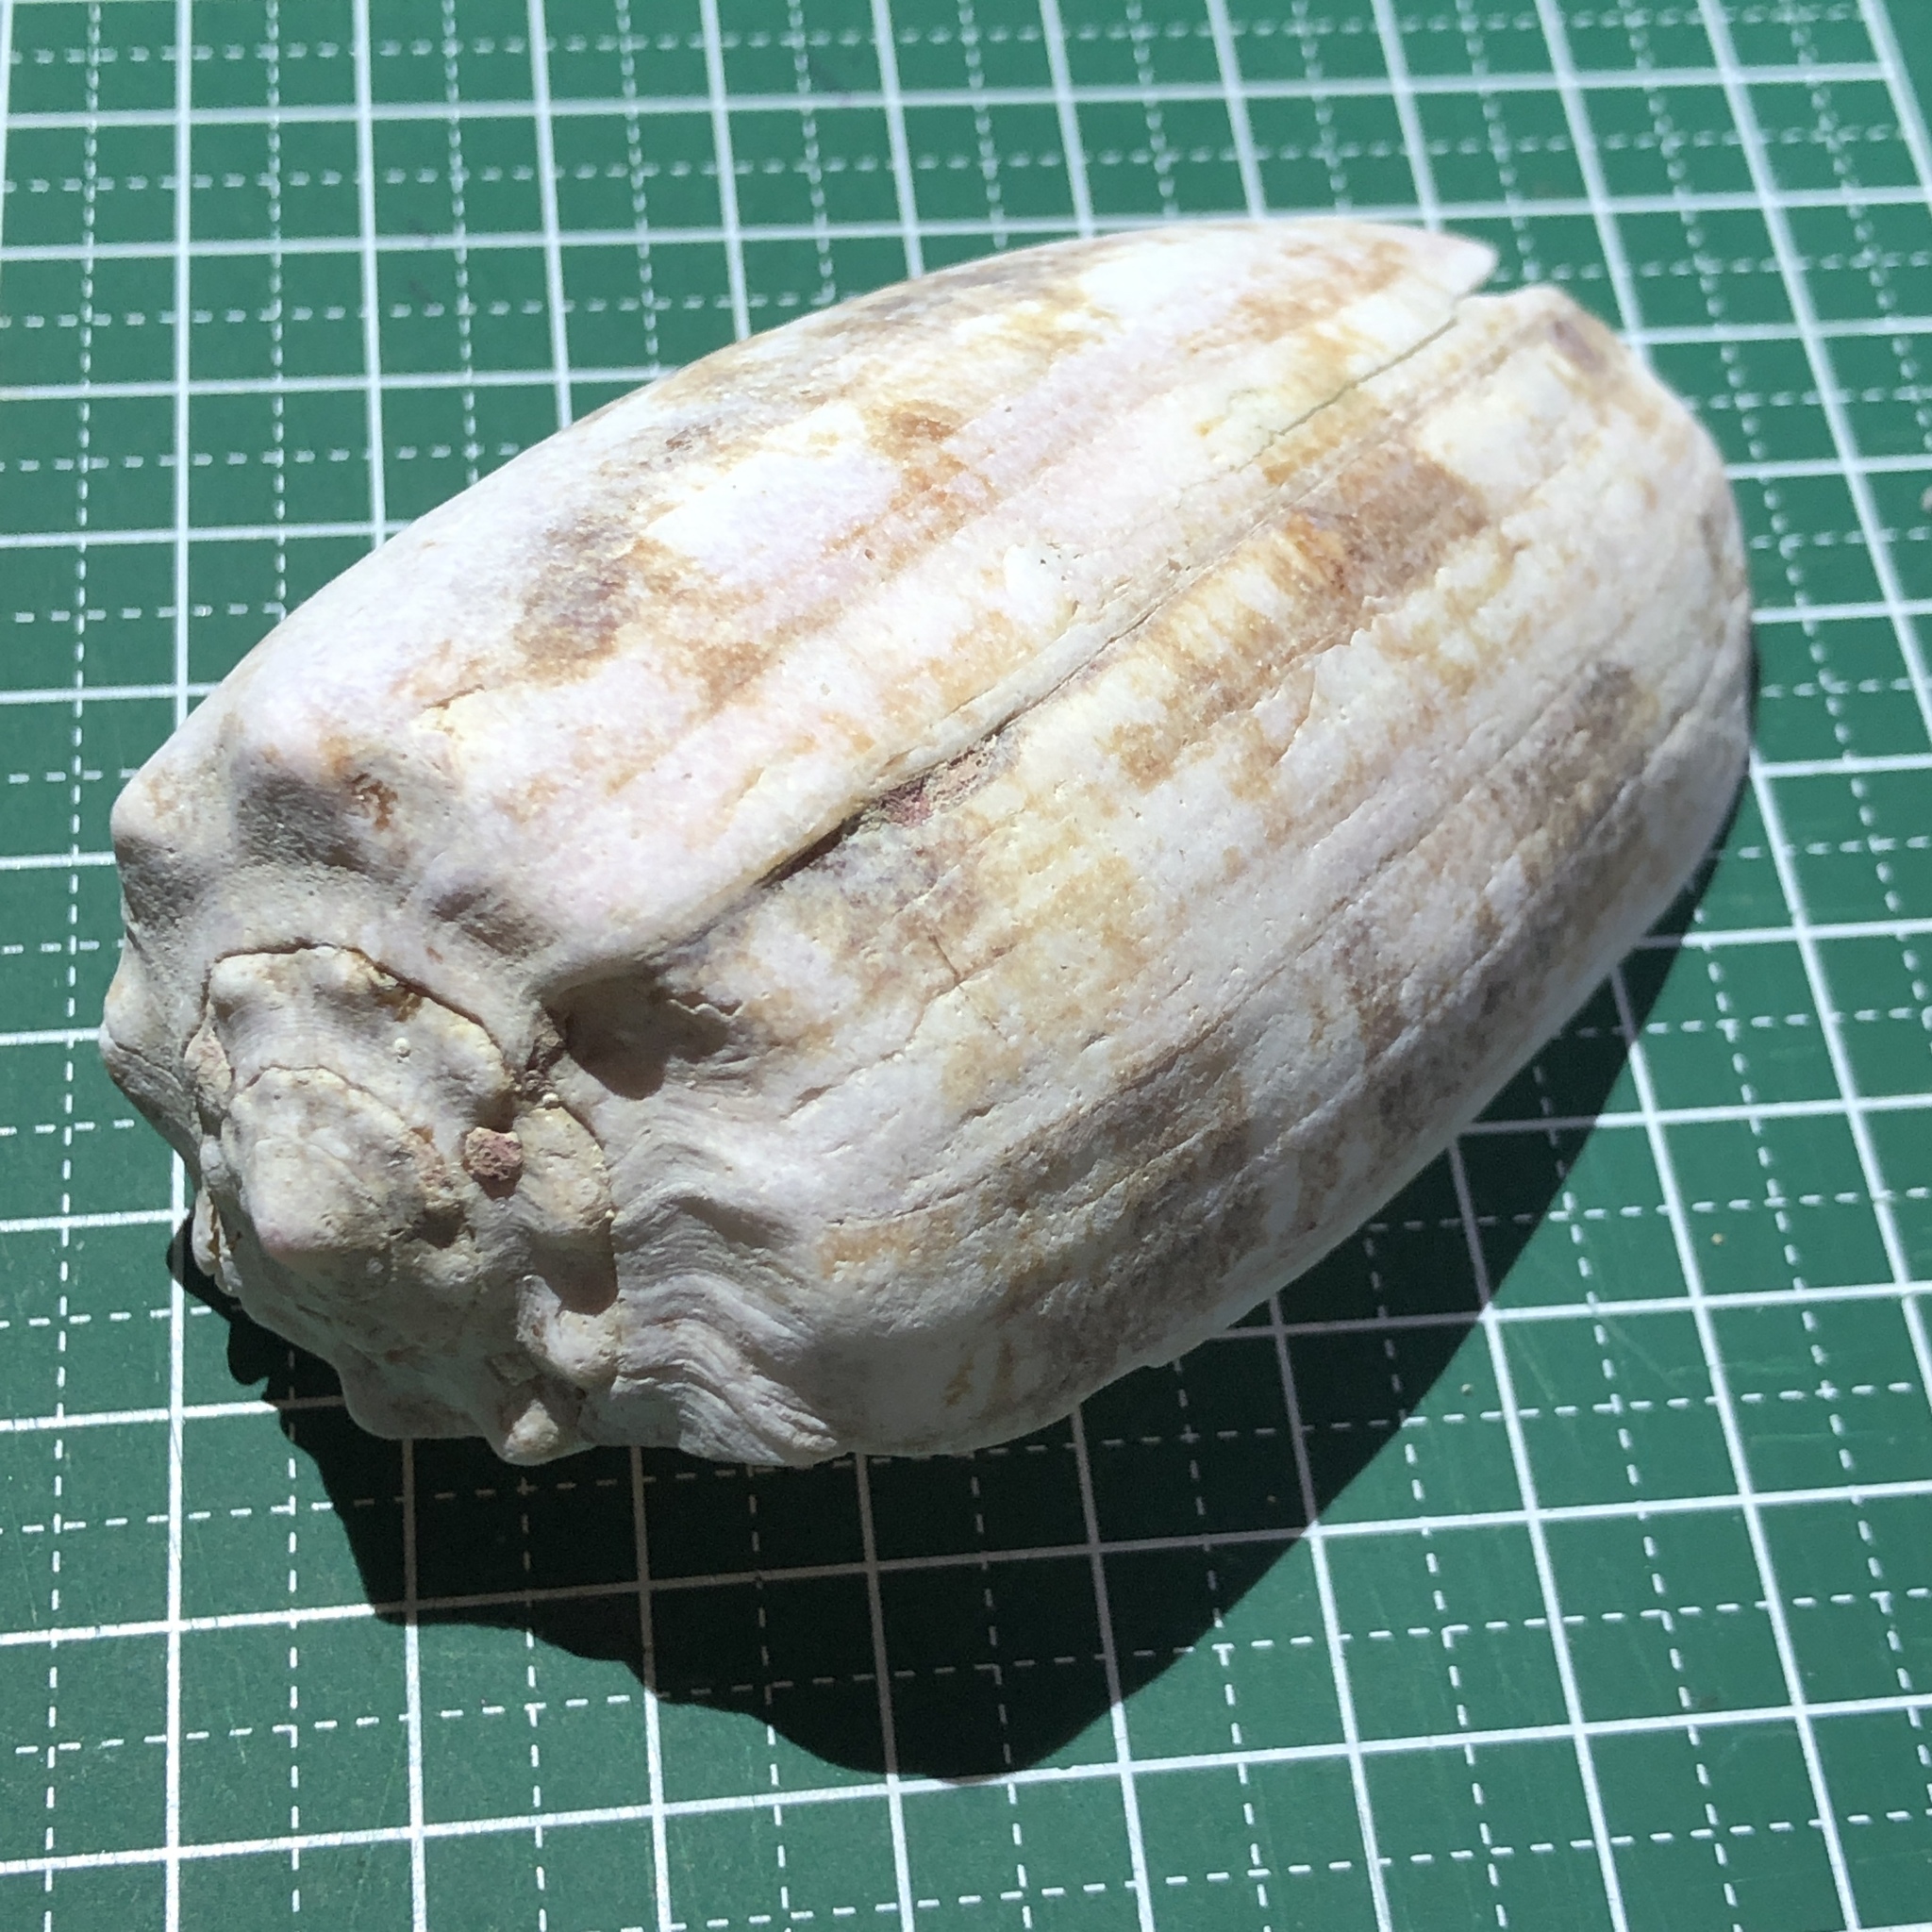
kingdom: Animalia
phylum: Mollusca
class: Gastropoda
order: Neogastropoda
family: Conidae
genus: Conus
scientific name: Conus geographus
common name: Geographer cone
